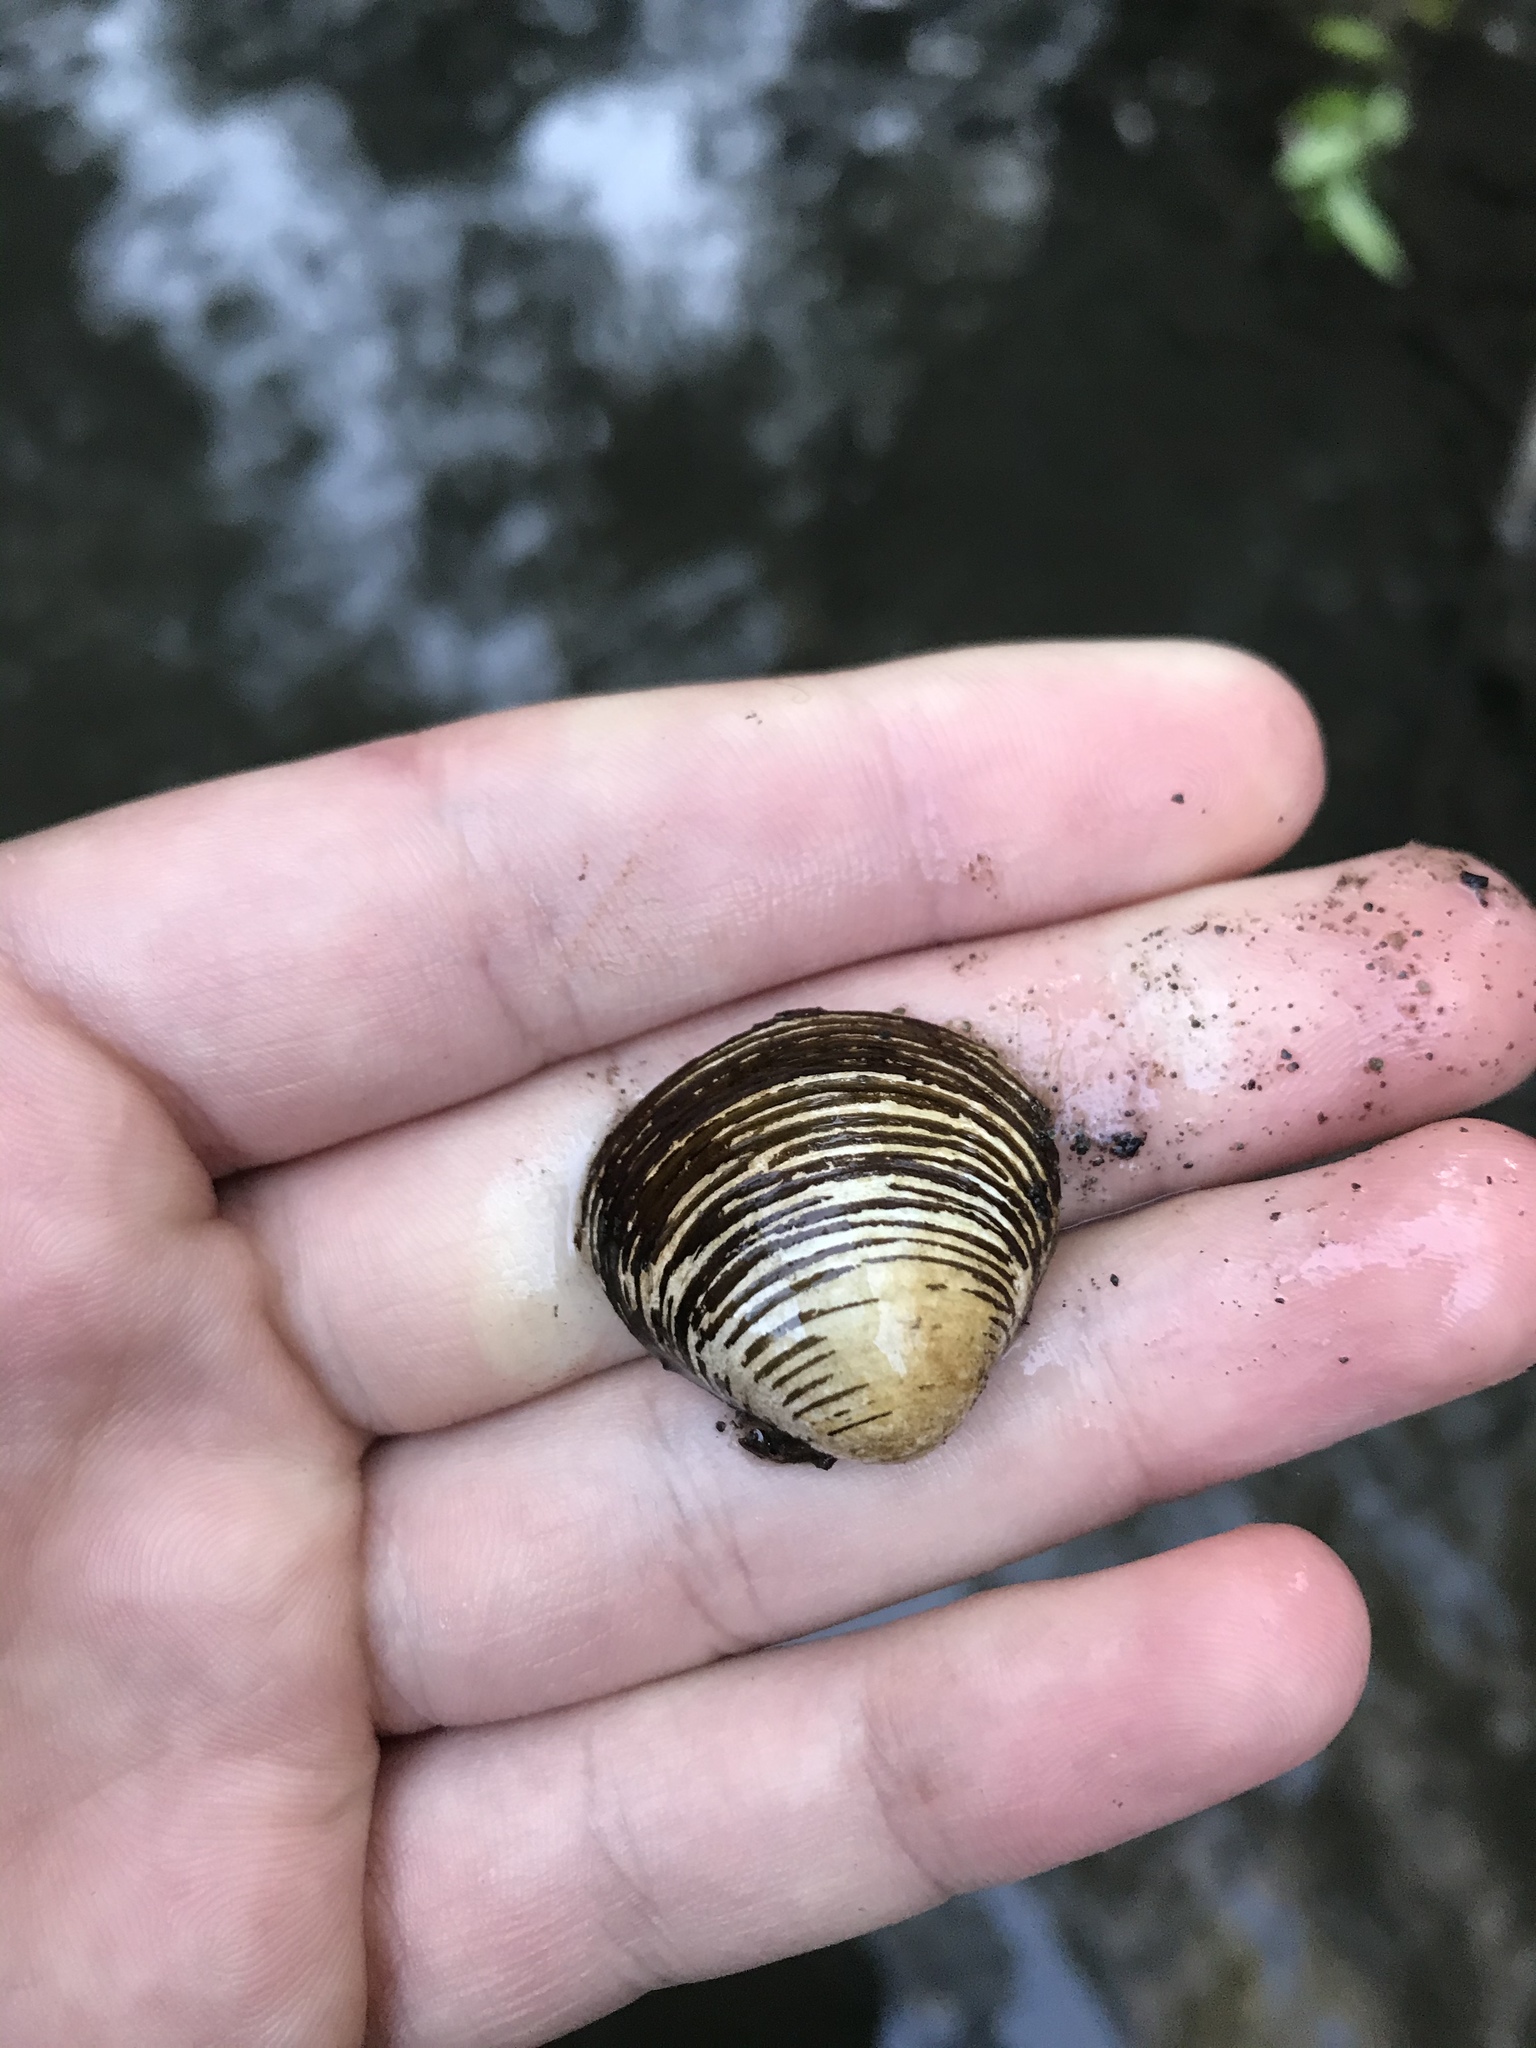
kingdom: Animalia
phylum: Mollusca
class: Bivalvia
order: Venerida
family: Cyrenidae
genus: Corbicula
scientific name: Corbicula fluminea
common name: Asian clam
